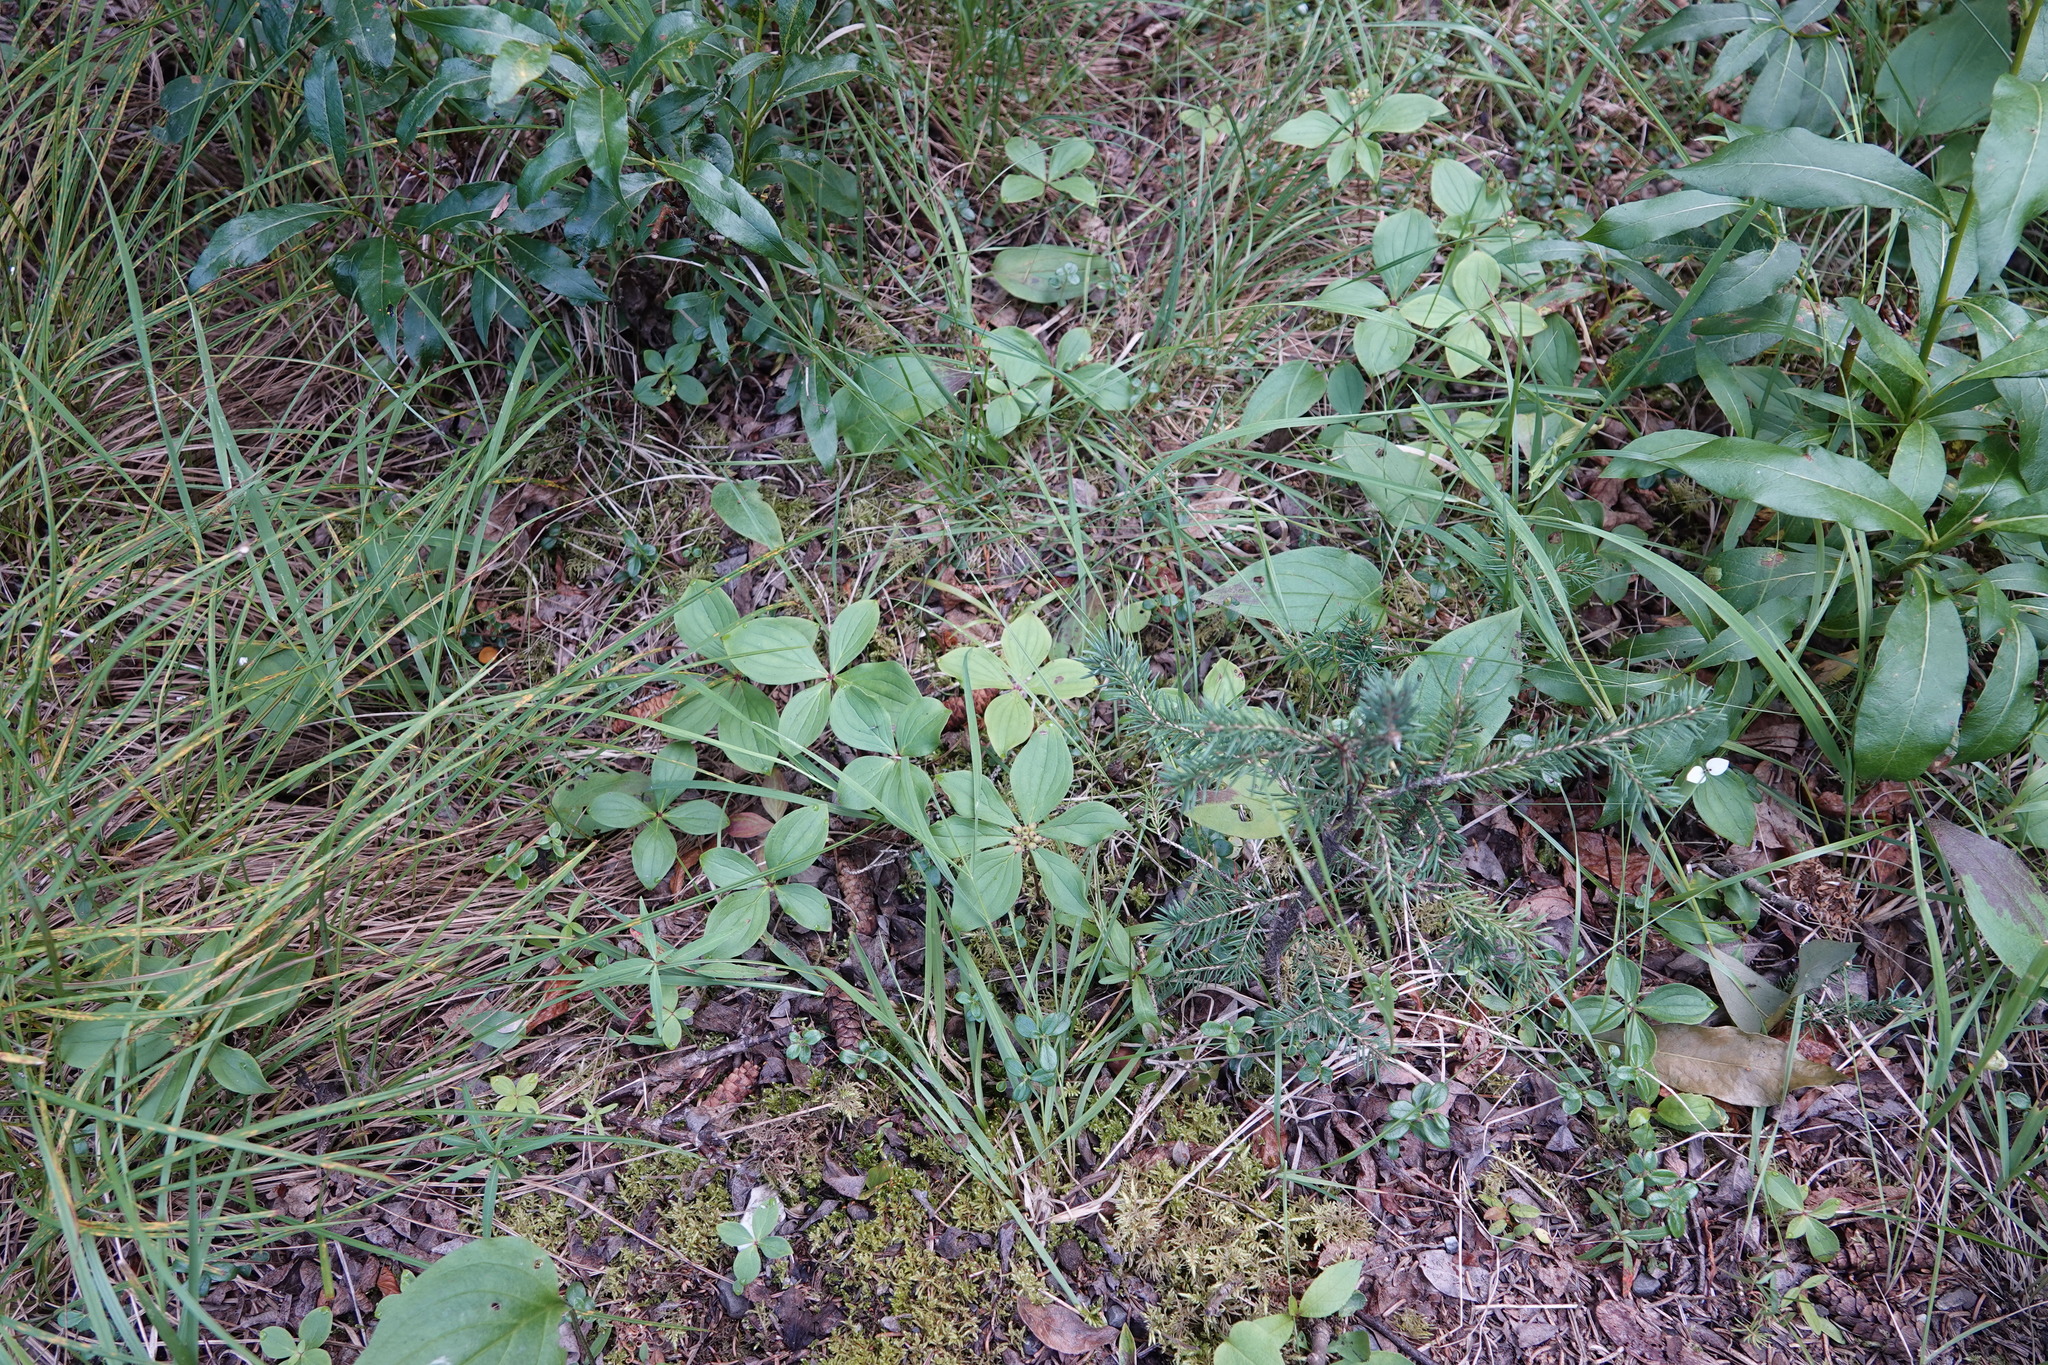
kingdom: Plantae
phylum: Tracheophyta
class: Magnoliopsida
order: Cornales
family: Cornaceae
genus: Cornus
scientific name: Cornus canadensis
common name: Creeping dogwood
